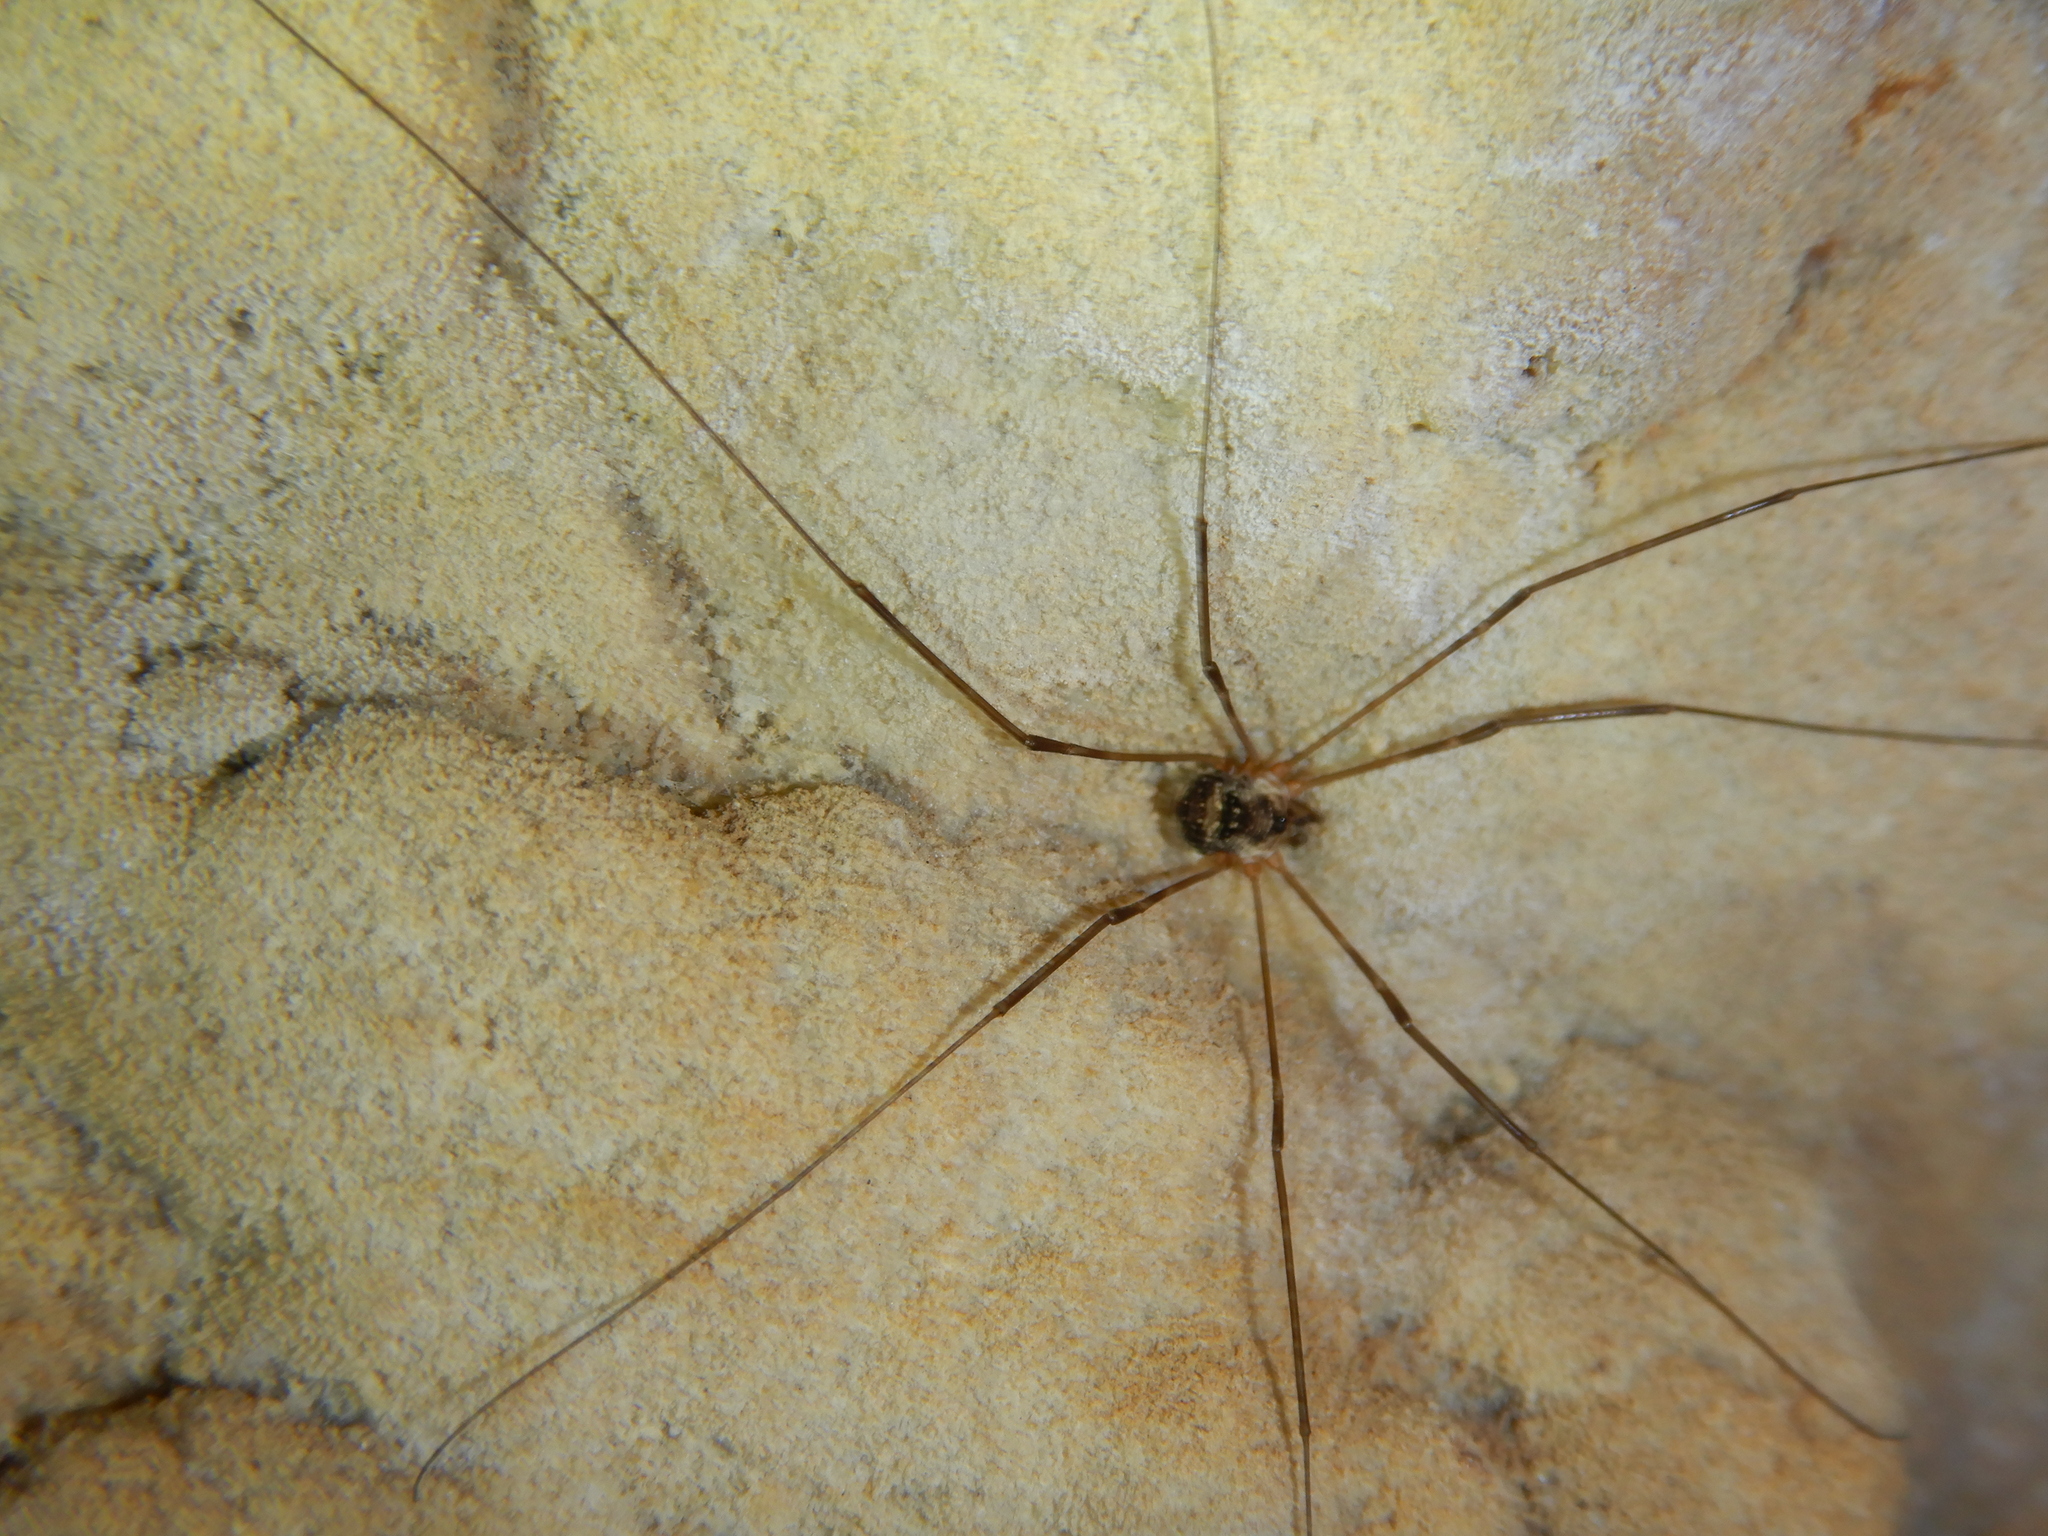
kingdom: Animalia
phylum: Arthropoda
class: Arachnida
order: Opiliones
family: Phalangiidae
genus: Amilenus
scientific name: Amilenus aurantiacus
